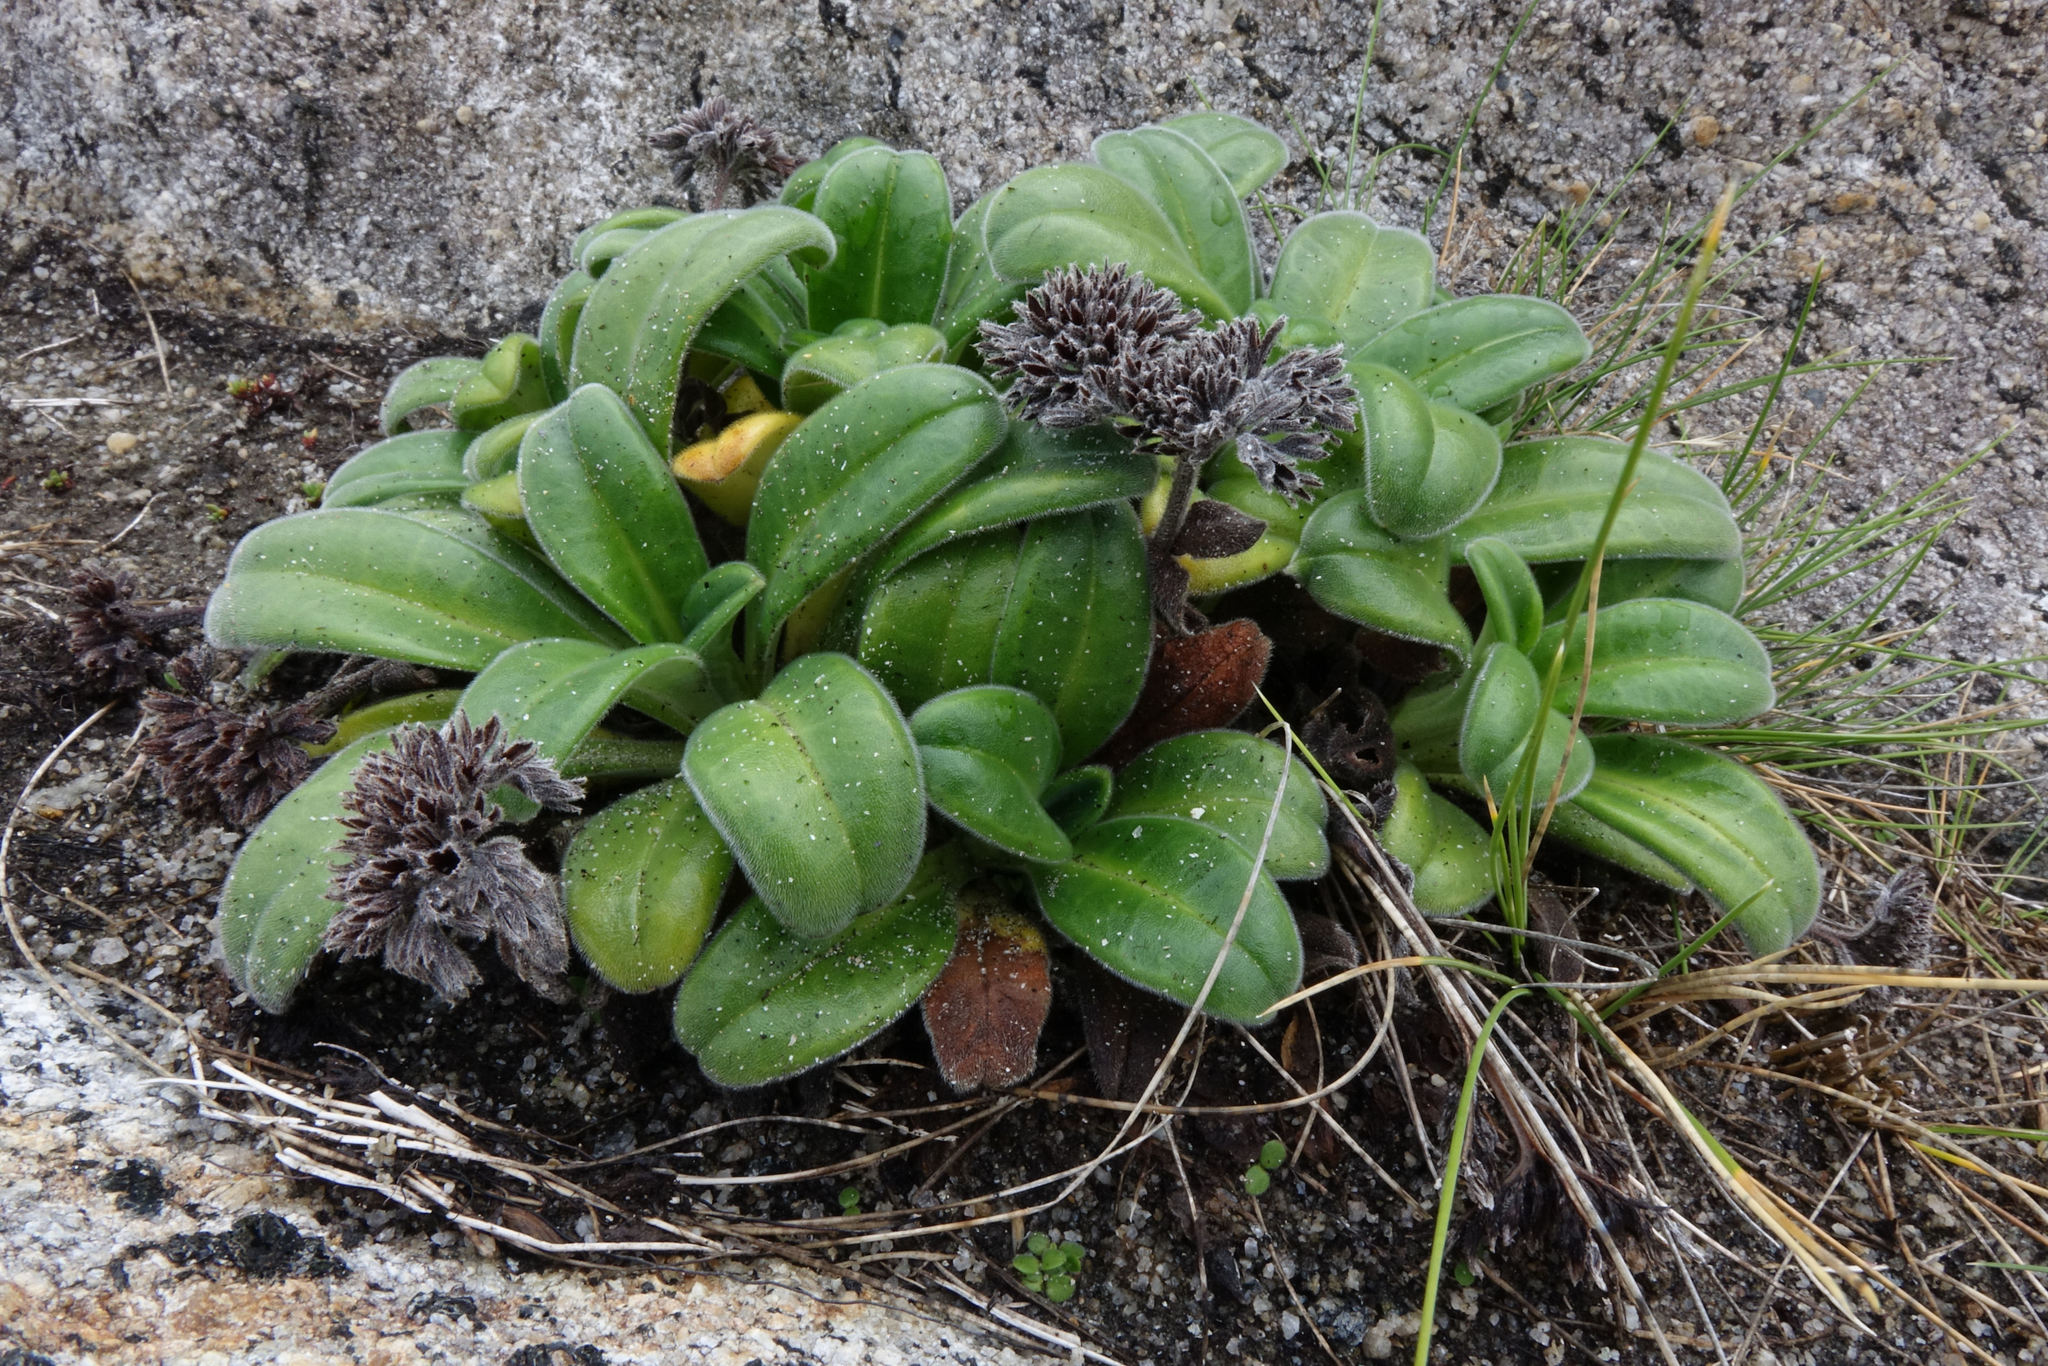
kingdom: Plantae
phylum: Tracheophyta
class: Magnoliopsida
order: Boraginales
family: Boraginaceae
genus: Myosotis
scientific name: Myosotis rakiura
